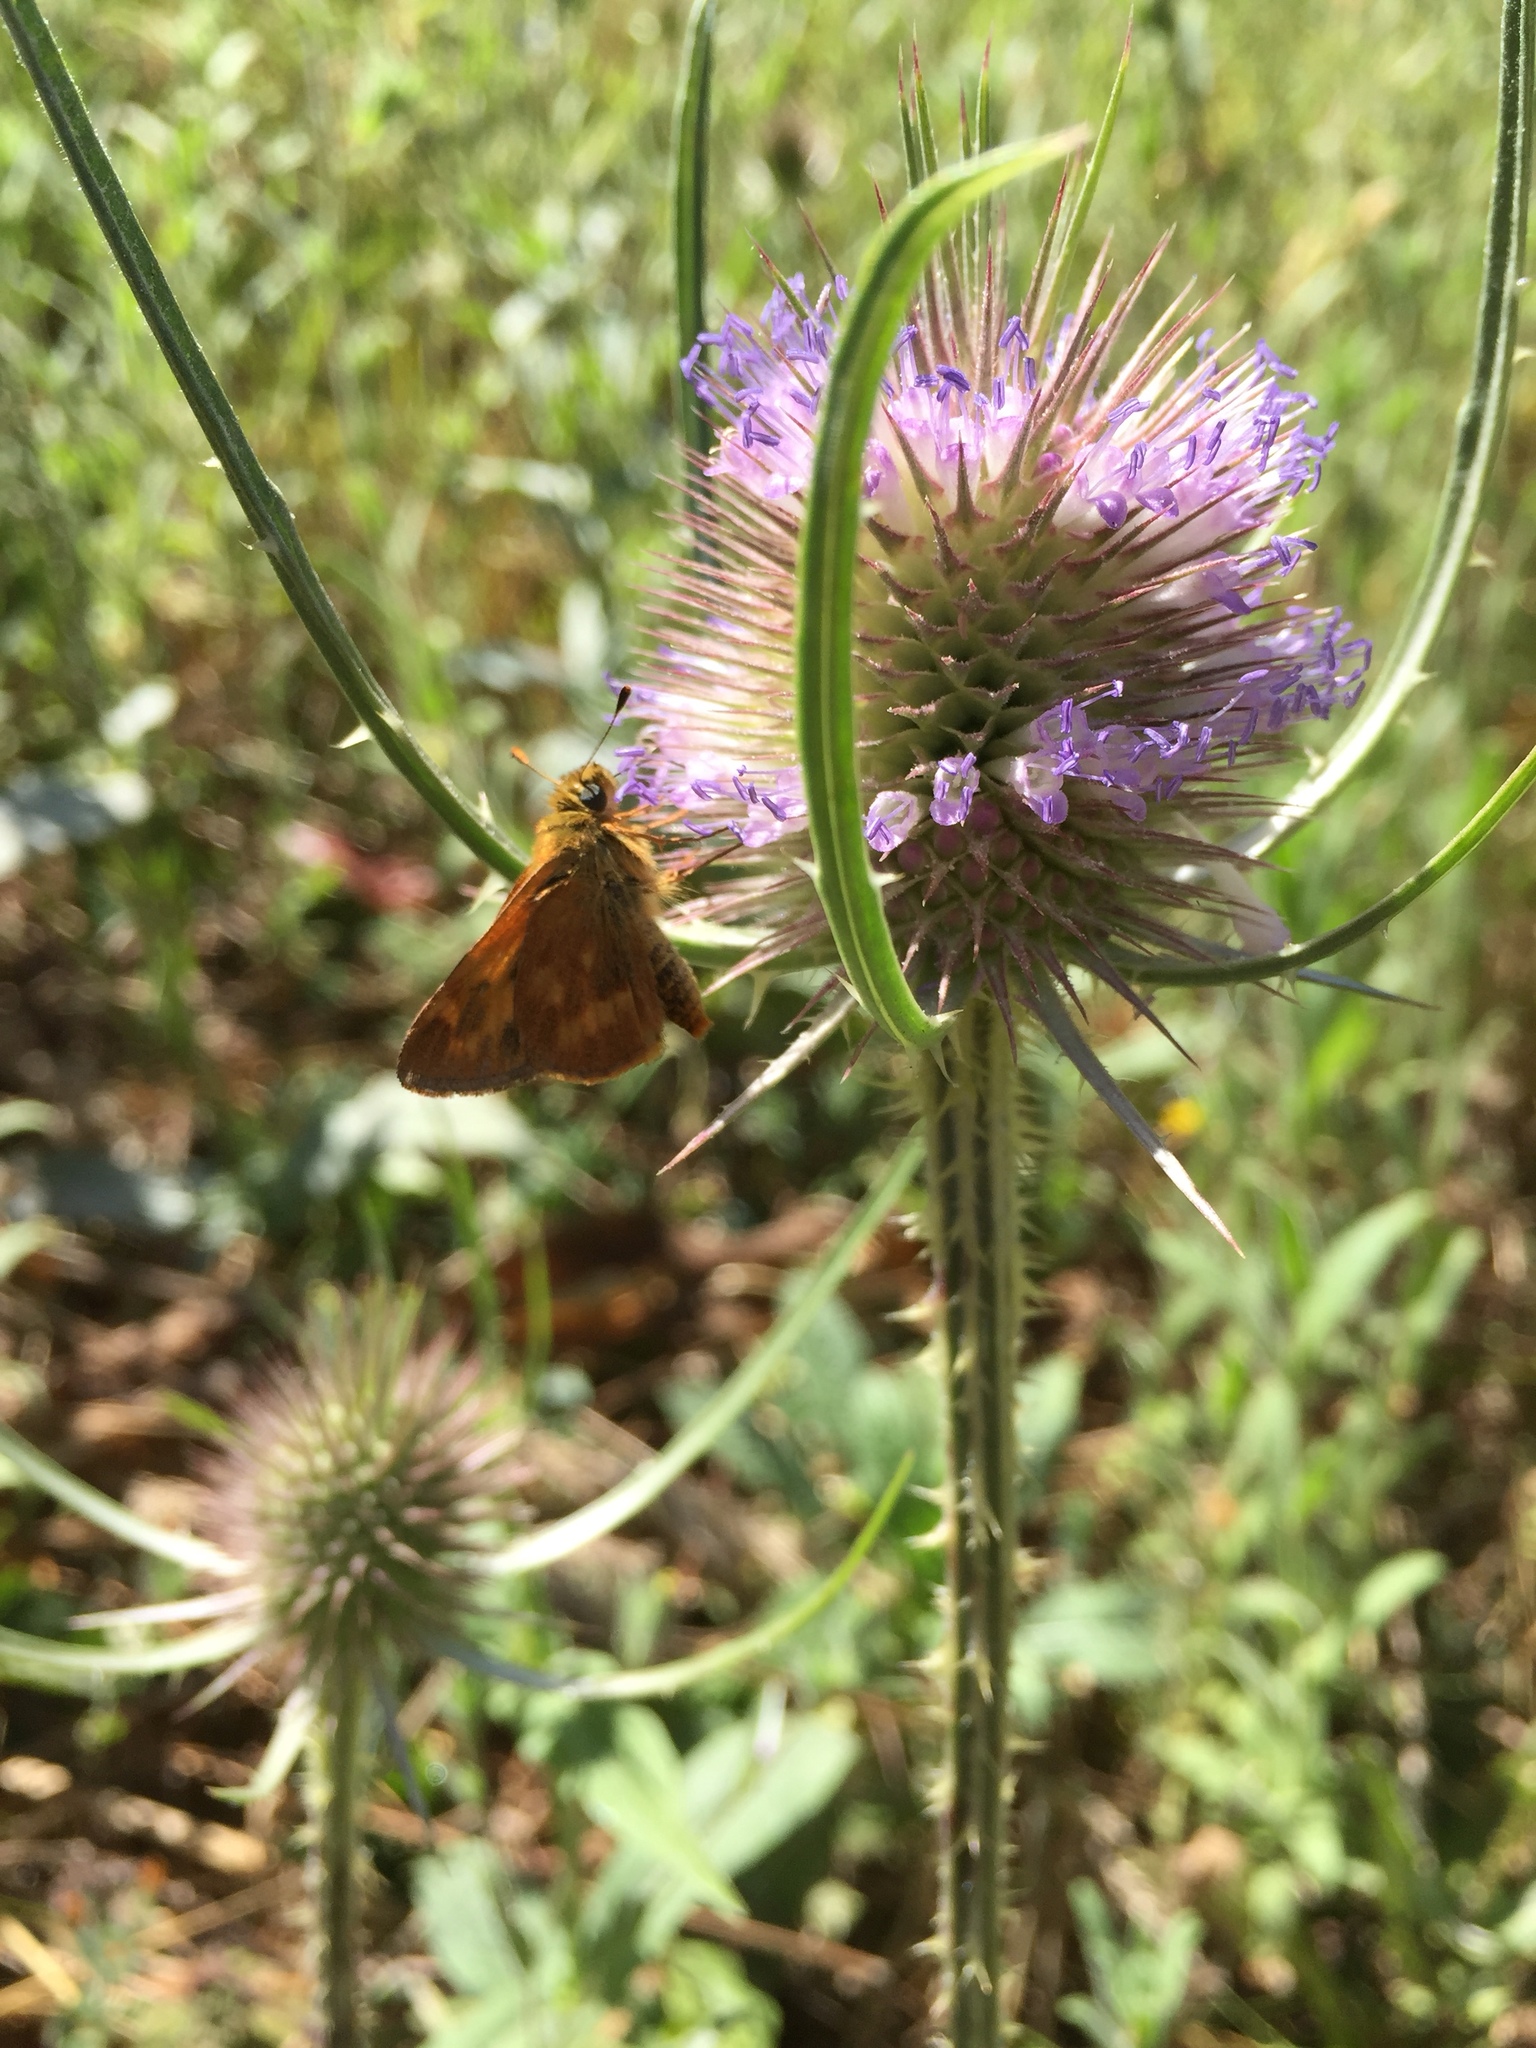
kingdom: Animalia
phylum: Arthropoda
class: Insecta
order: Lepidoptera
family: Hesperiidae
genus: Ochlodes
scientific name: Ochlodes sylvanoides
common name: Woodland skipper
